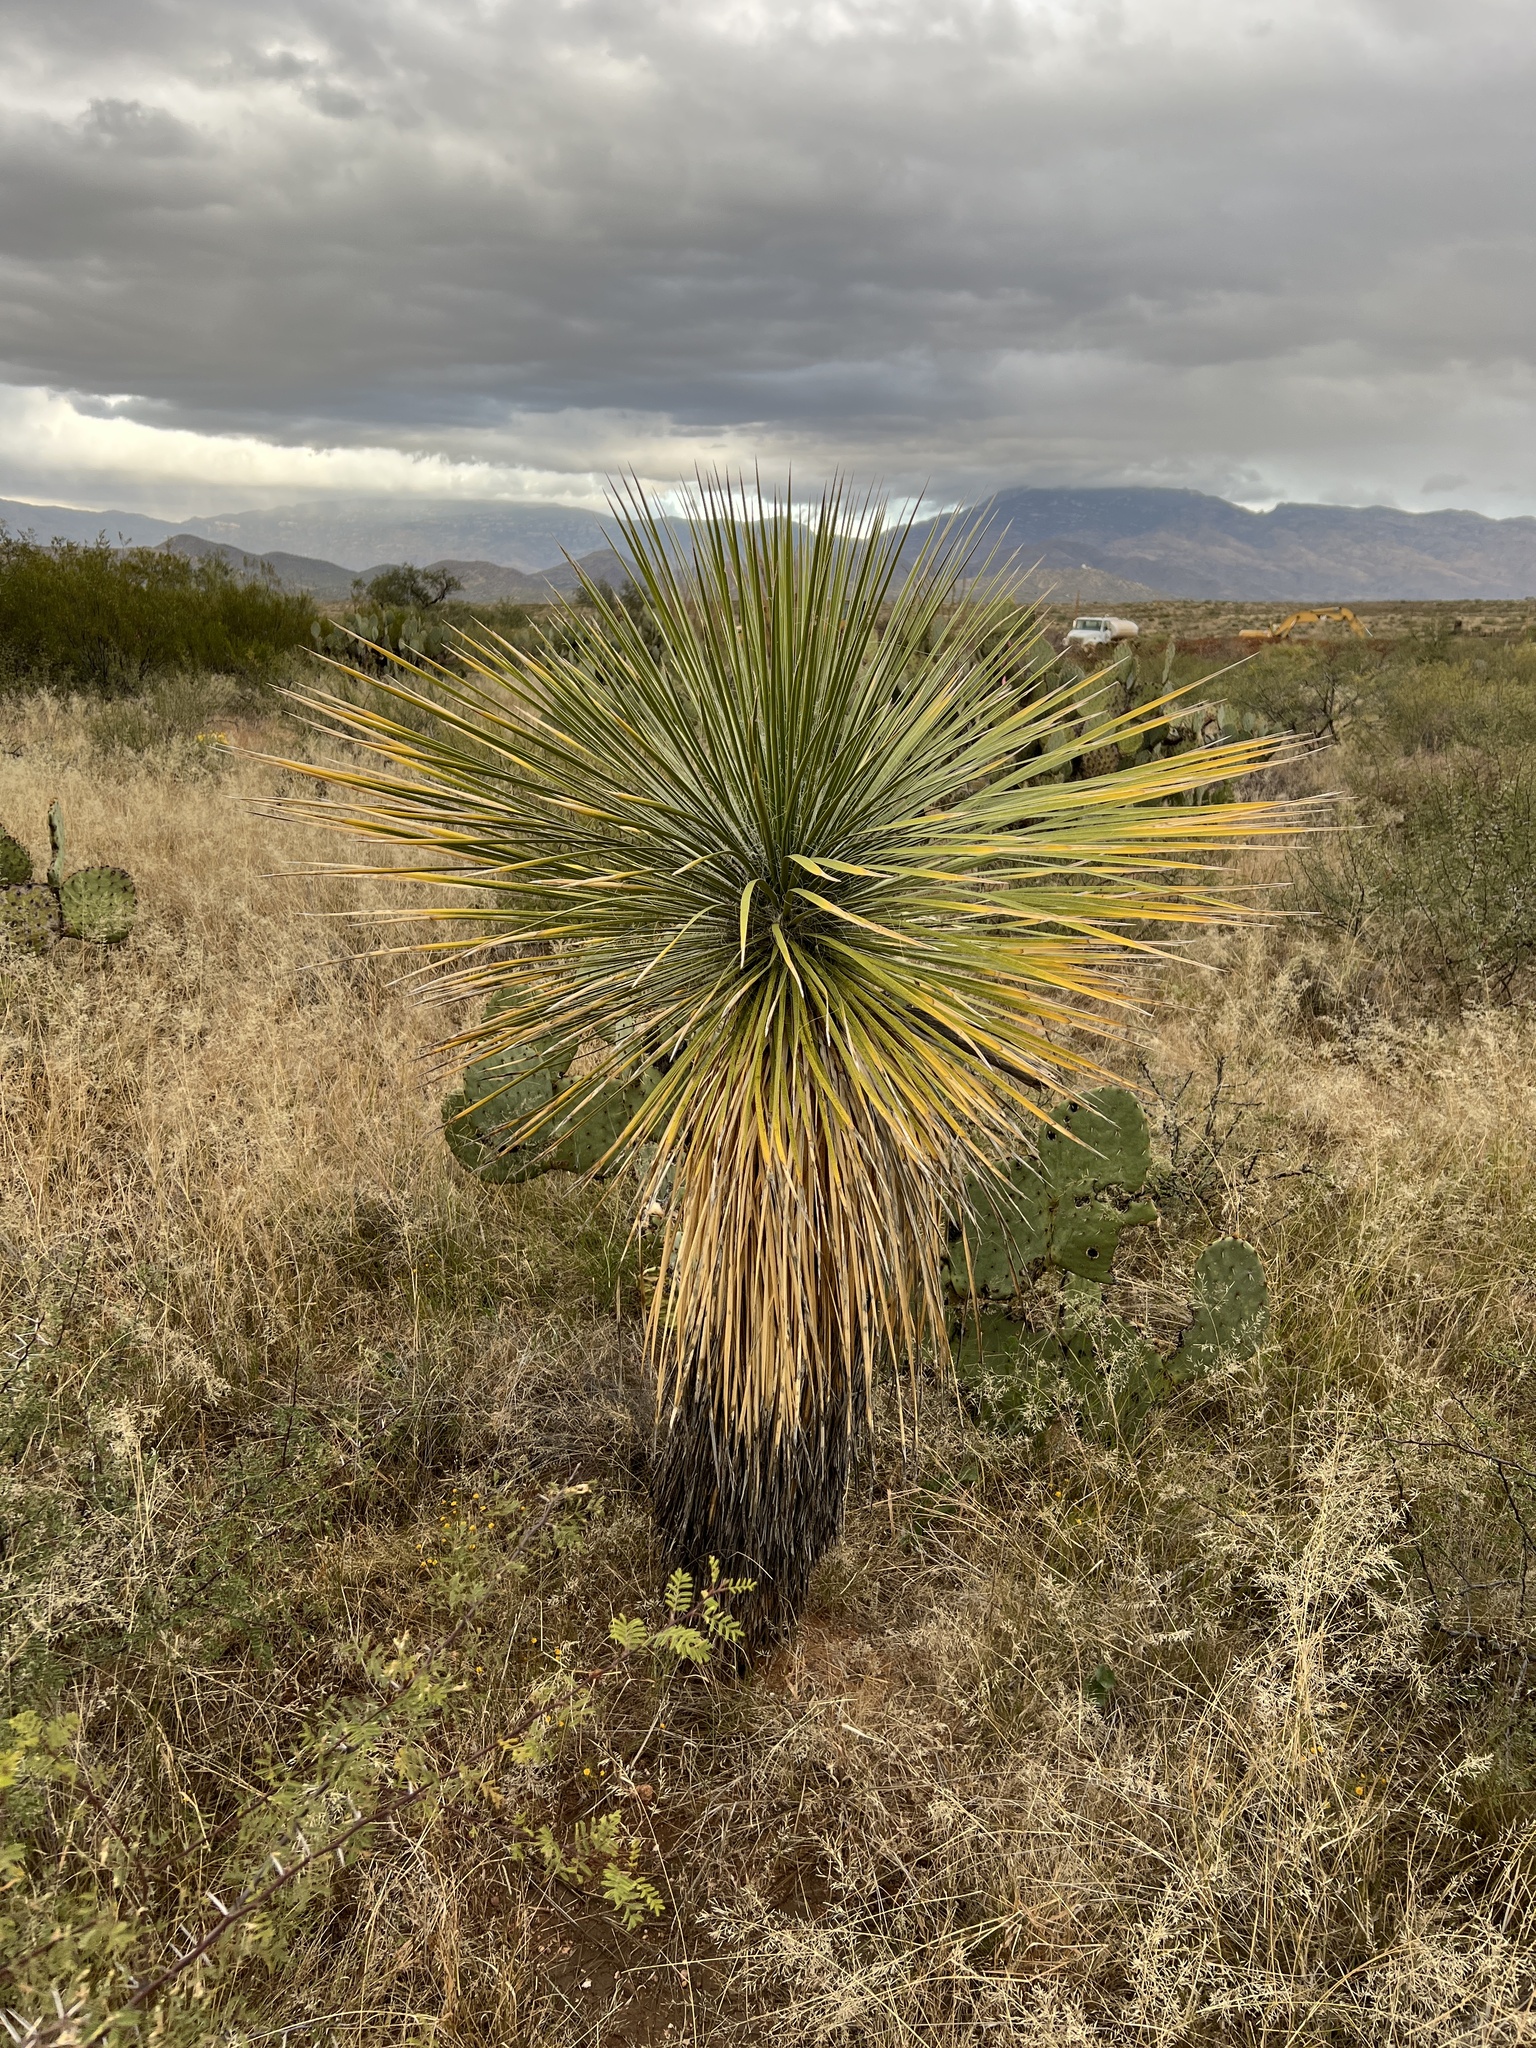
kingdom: Plantae
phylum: Tracheophyta
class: Liliopsida
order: Asparagales
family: Asparagaceae
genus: Yucca
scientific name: Yucca elata
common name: Palmella
